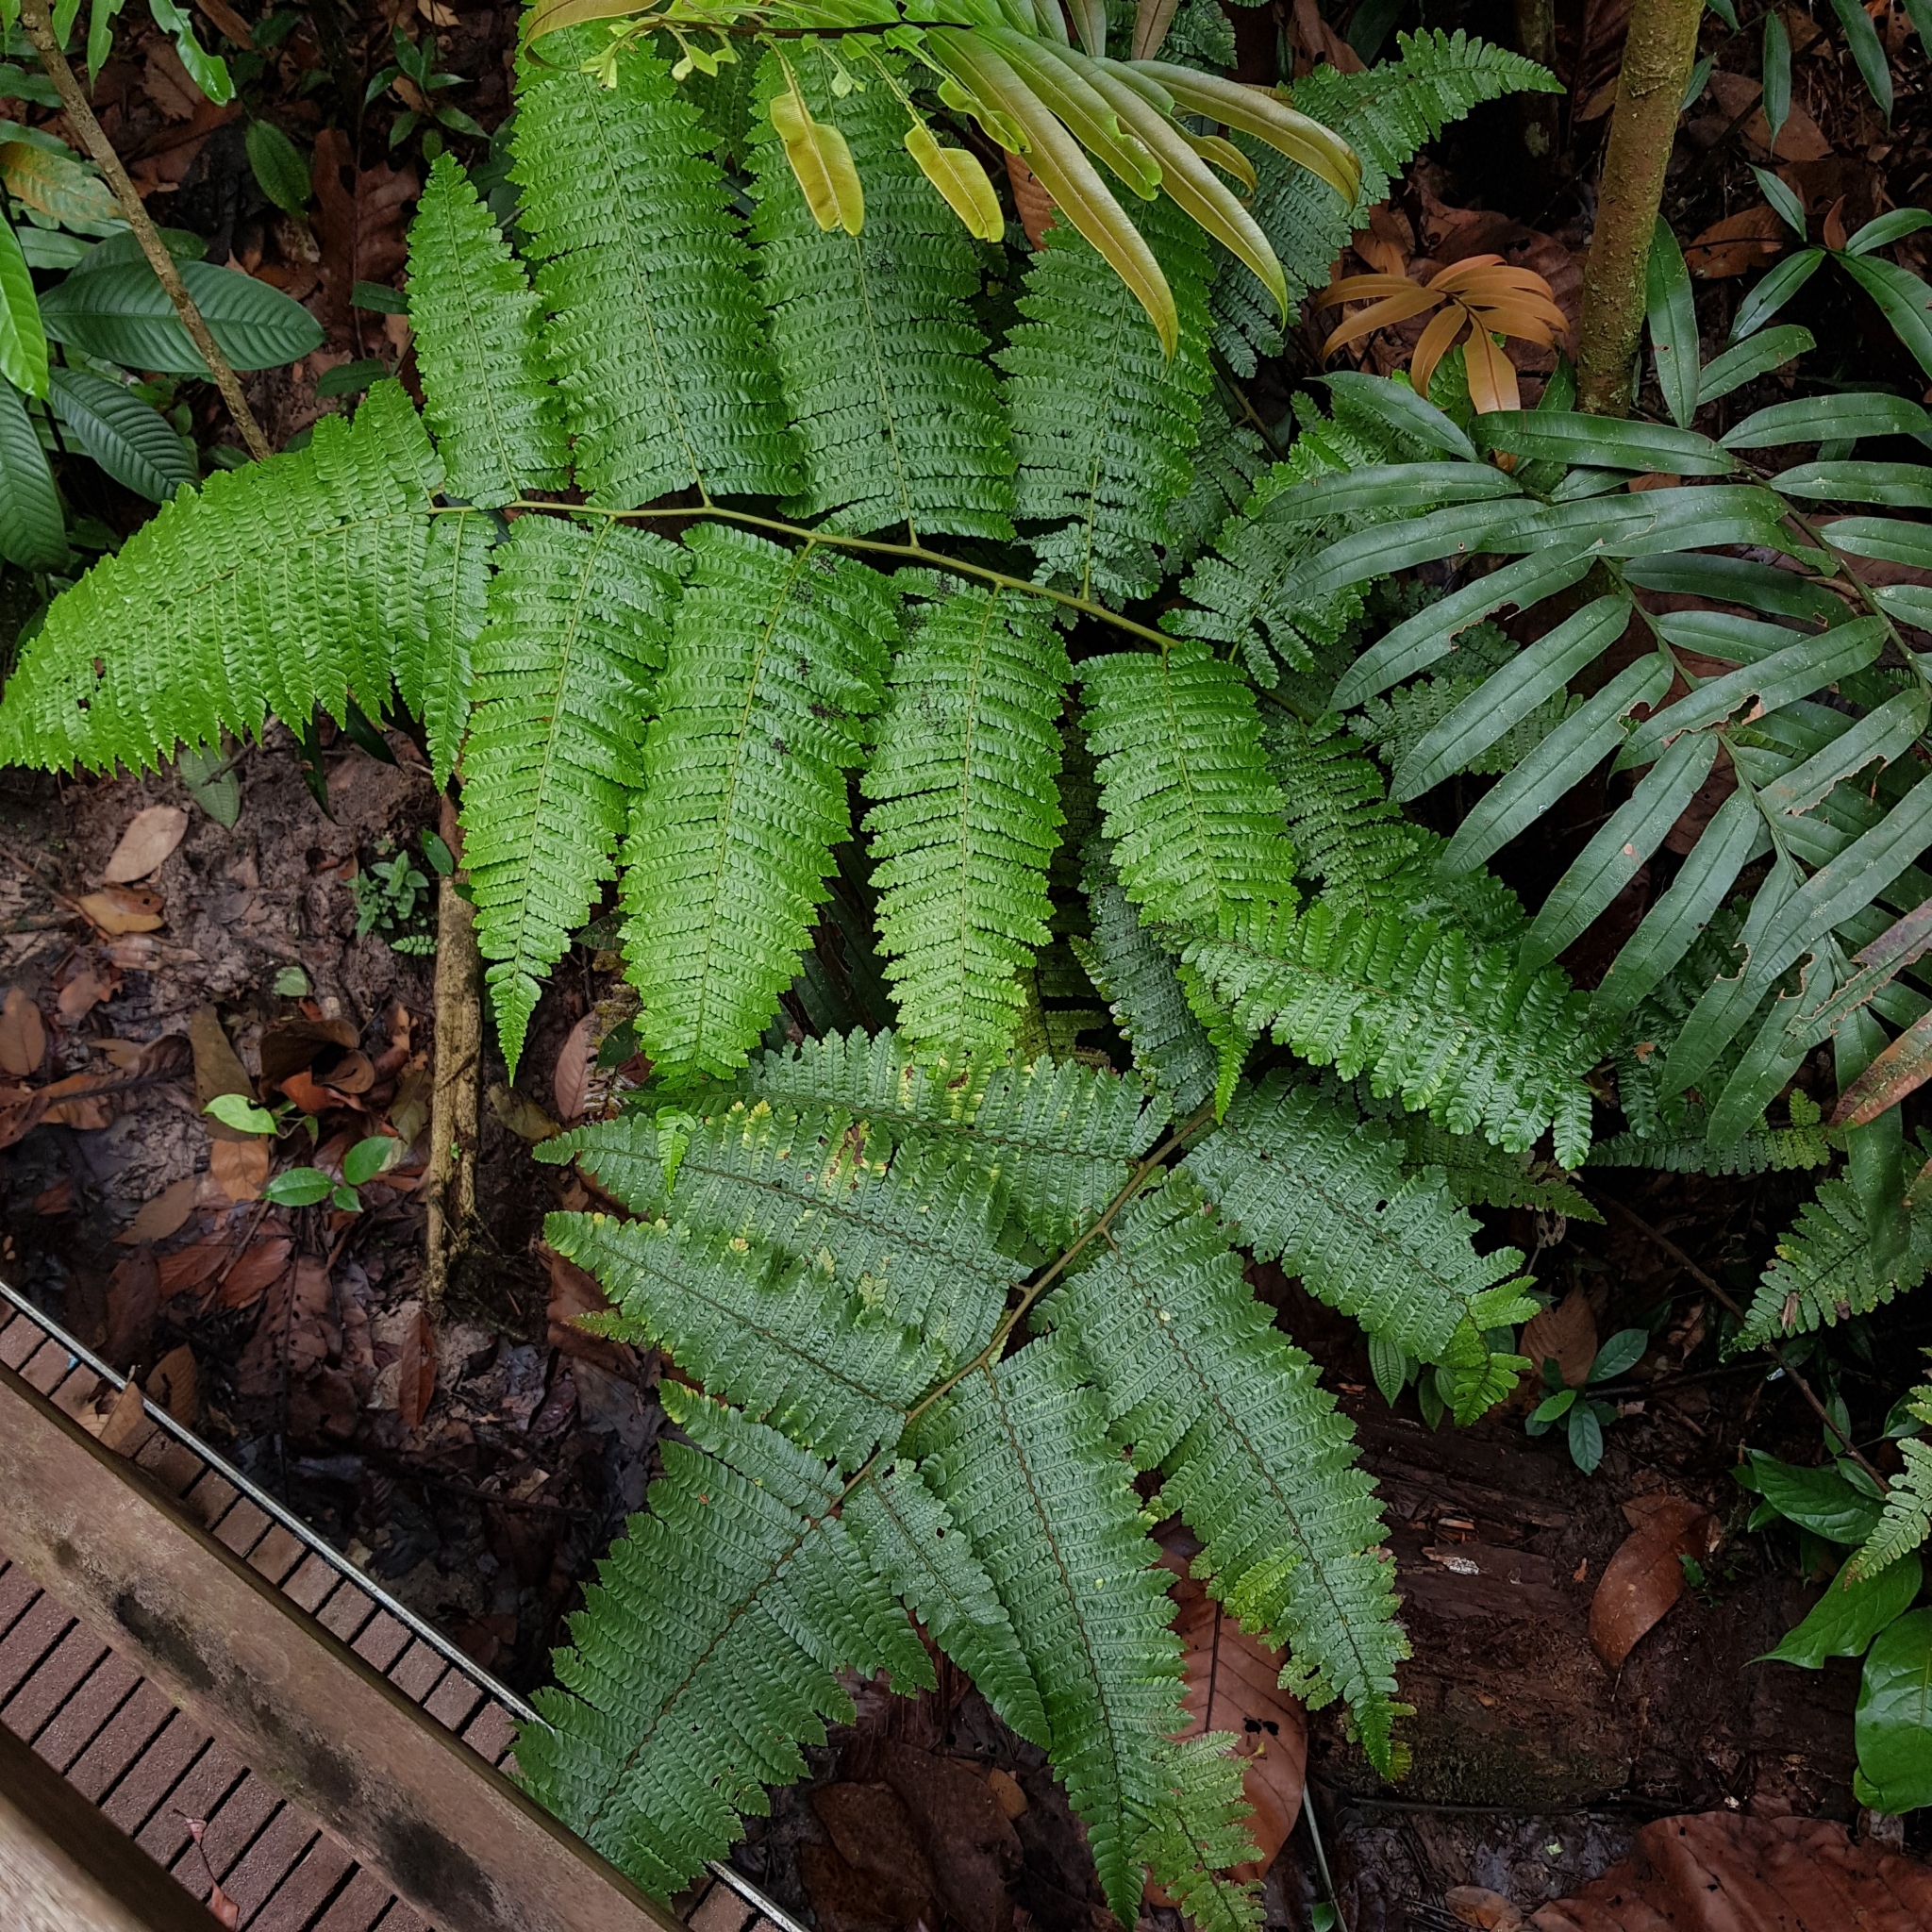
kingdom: Plantae
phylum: Tracheophyta
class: Polypodiopsida
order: Cyatheales
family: Cyatheaceae
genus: Sphaeropteris
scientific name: Sphaeropteris squamulata
